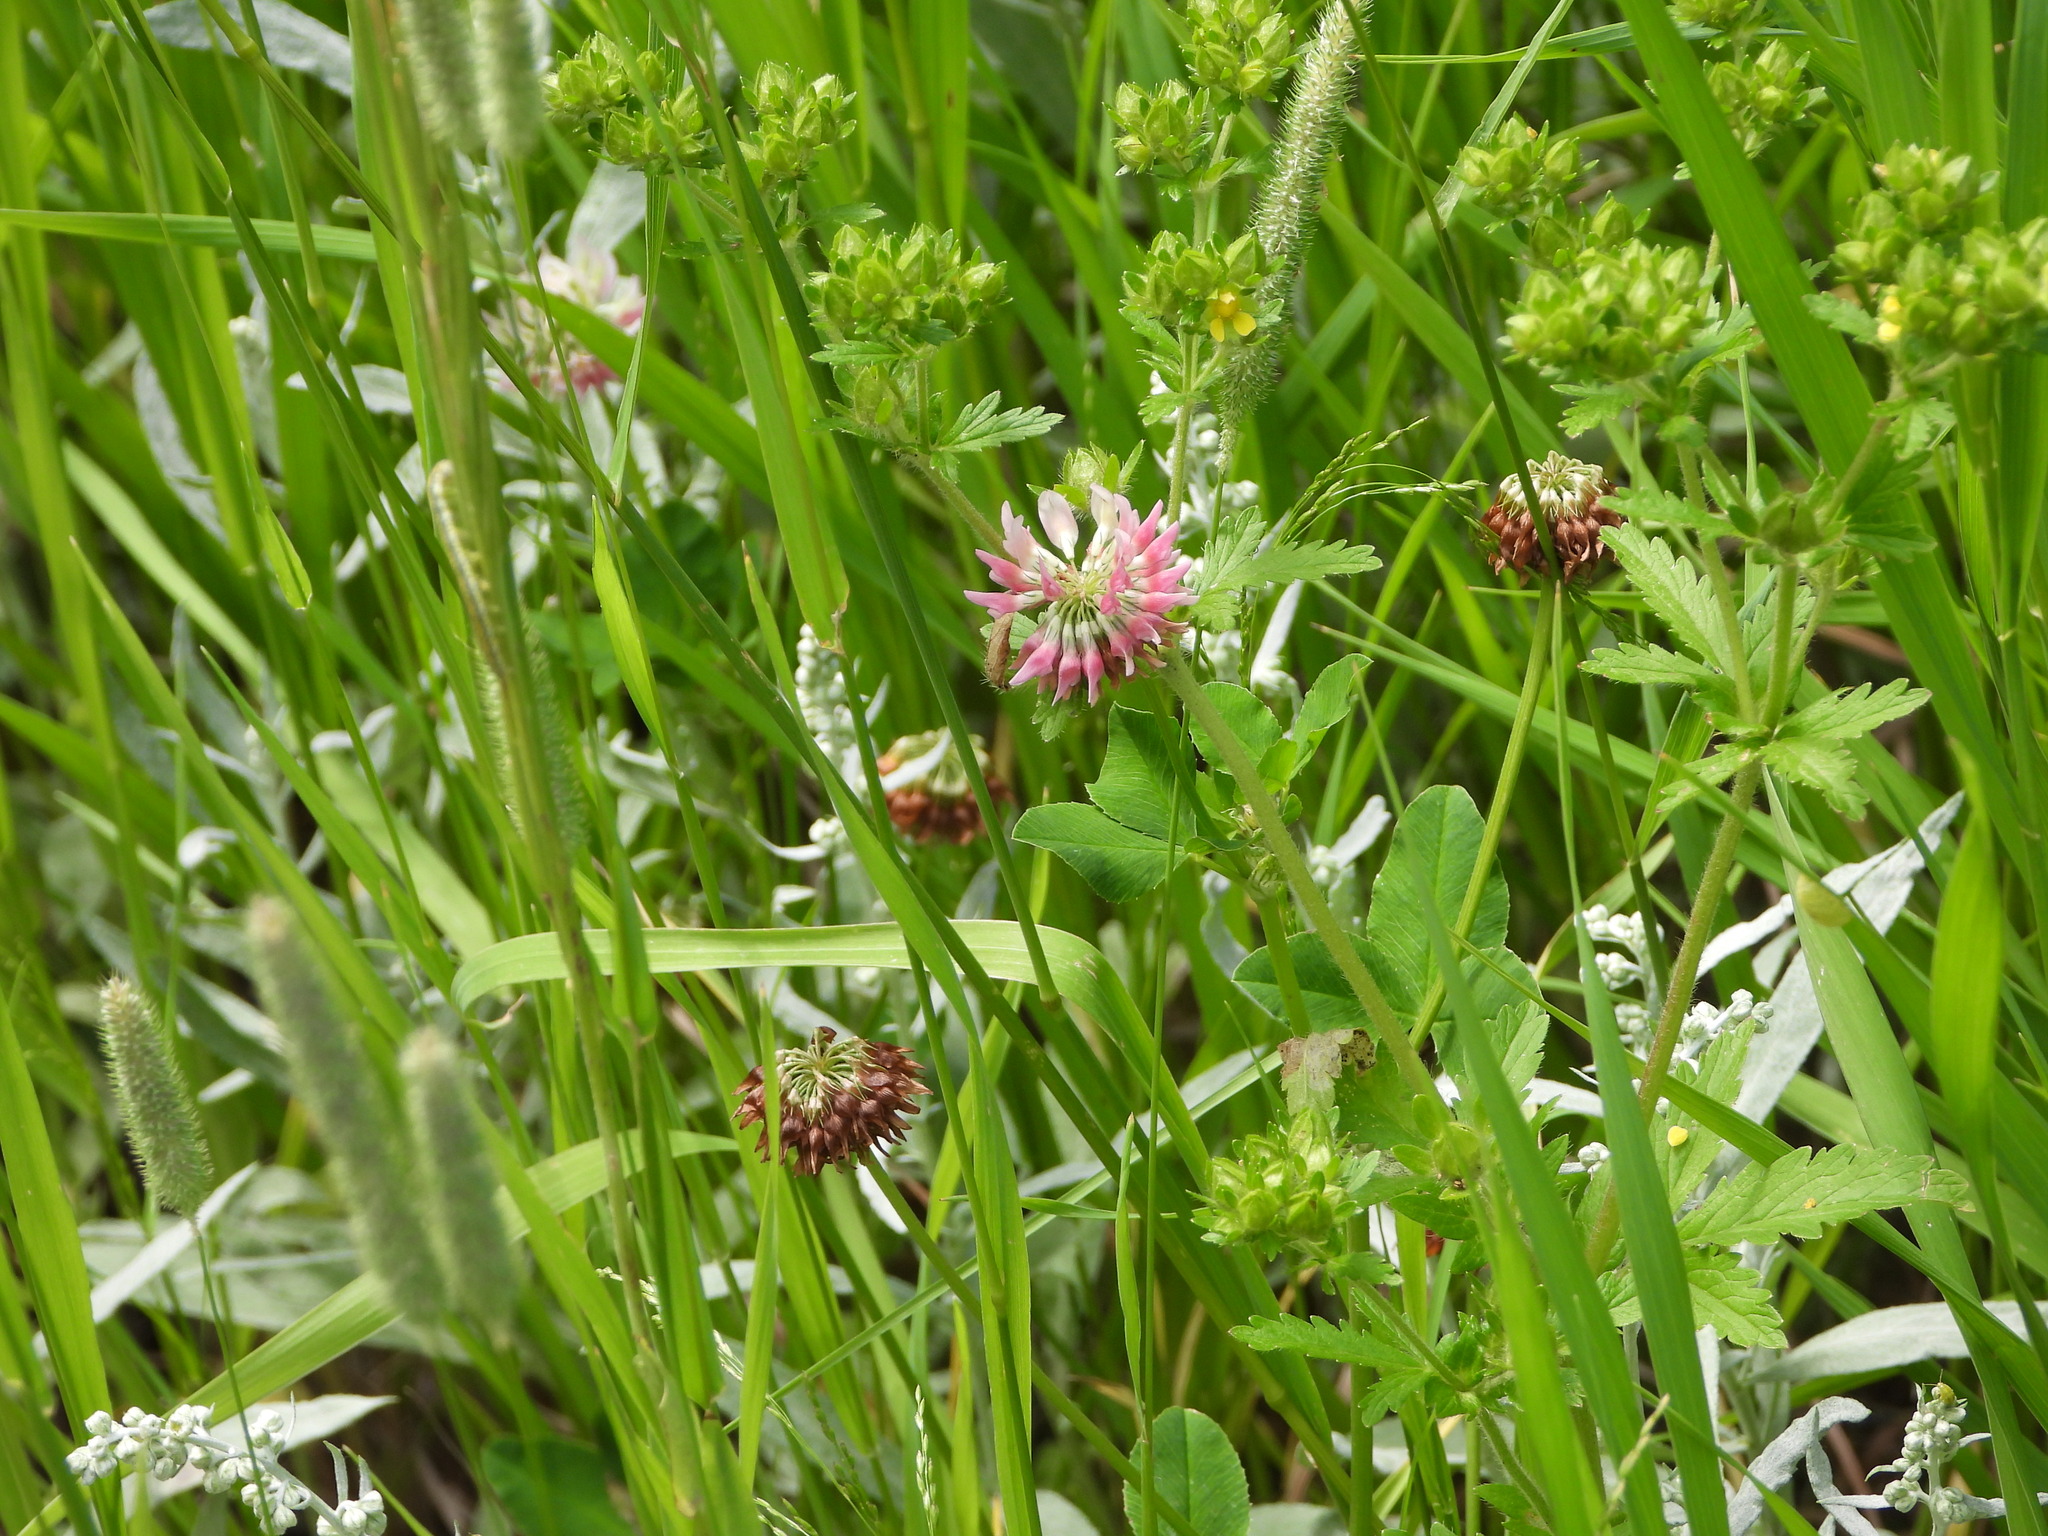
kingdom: Plantae
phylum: Tracheophyta
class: Magnoliopsida
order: Fabales
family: Fabaceae
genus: Trifolium
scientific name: Trifolium hybridum
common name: Alsike clover
